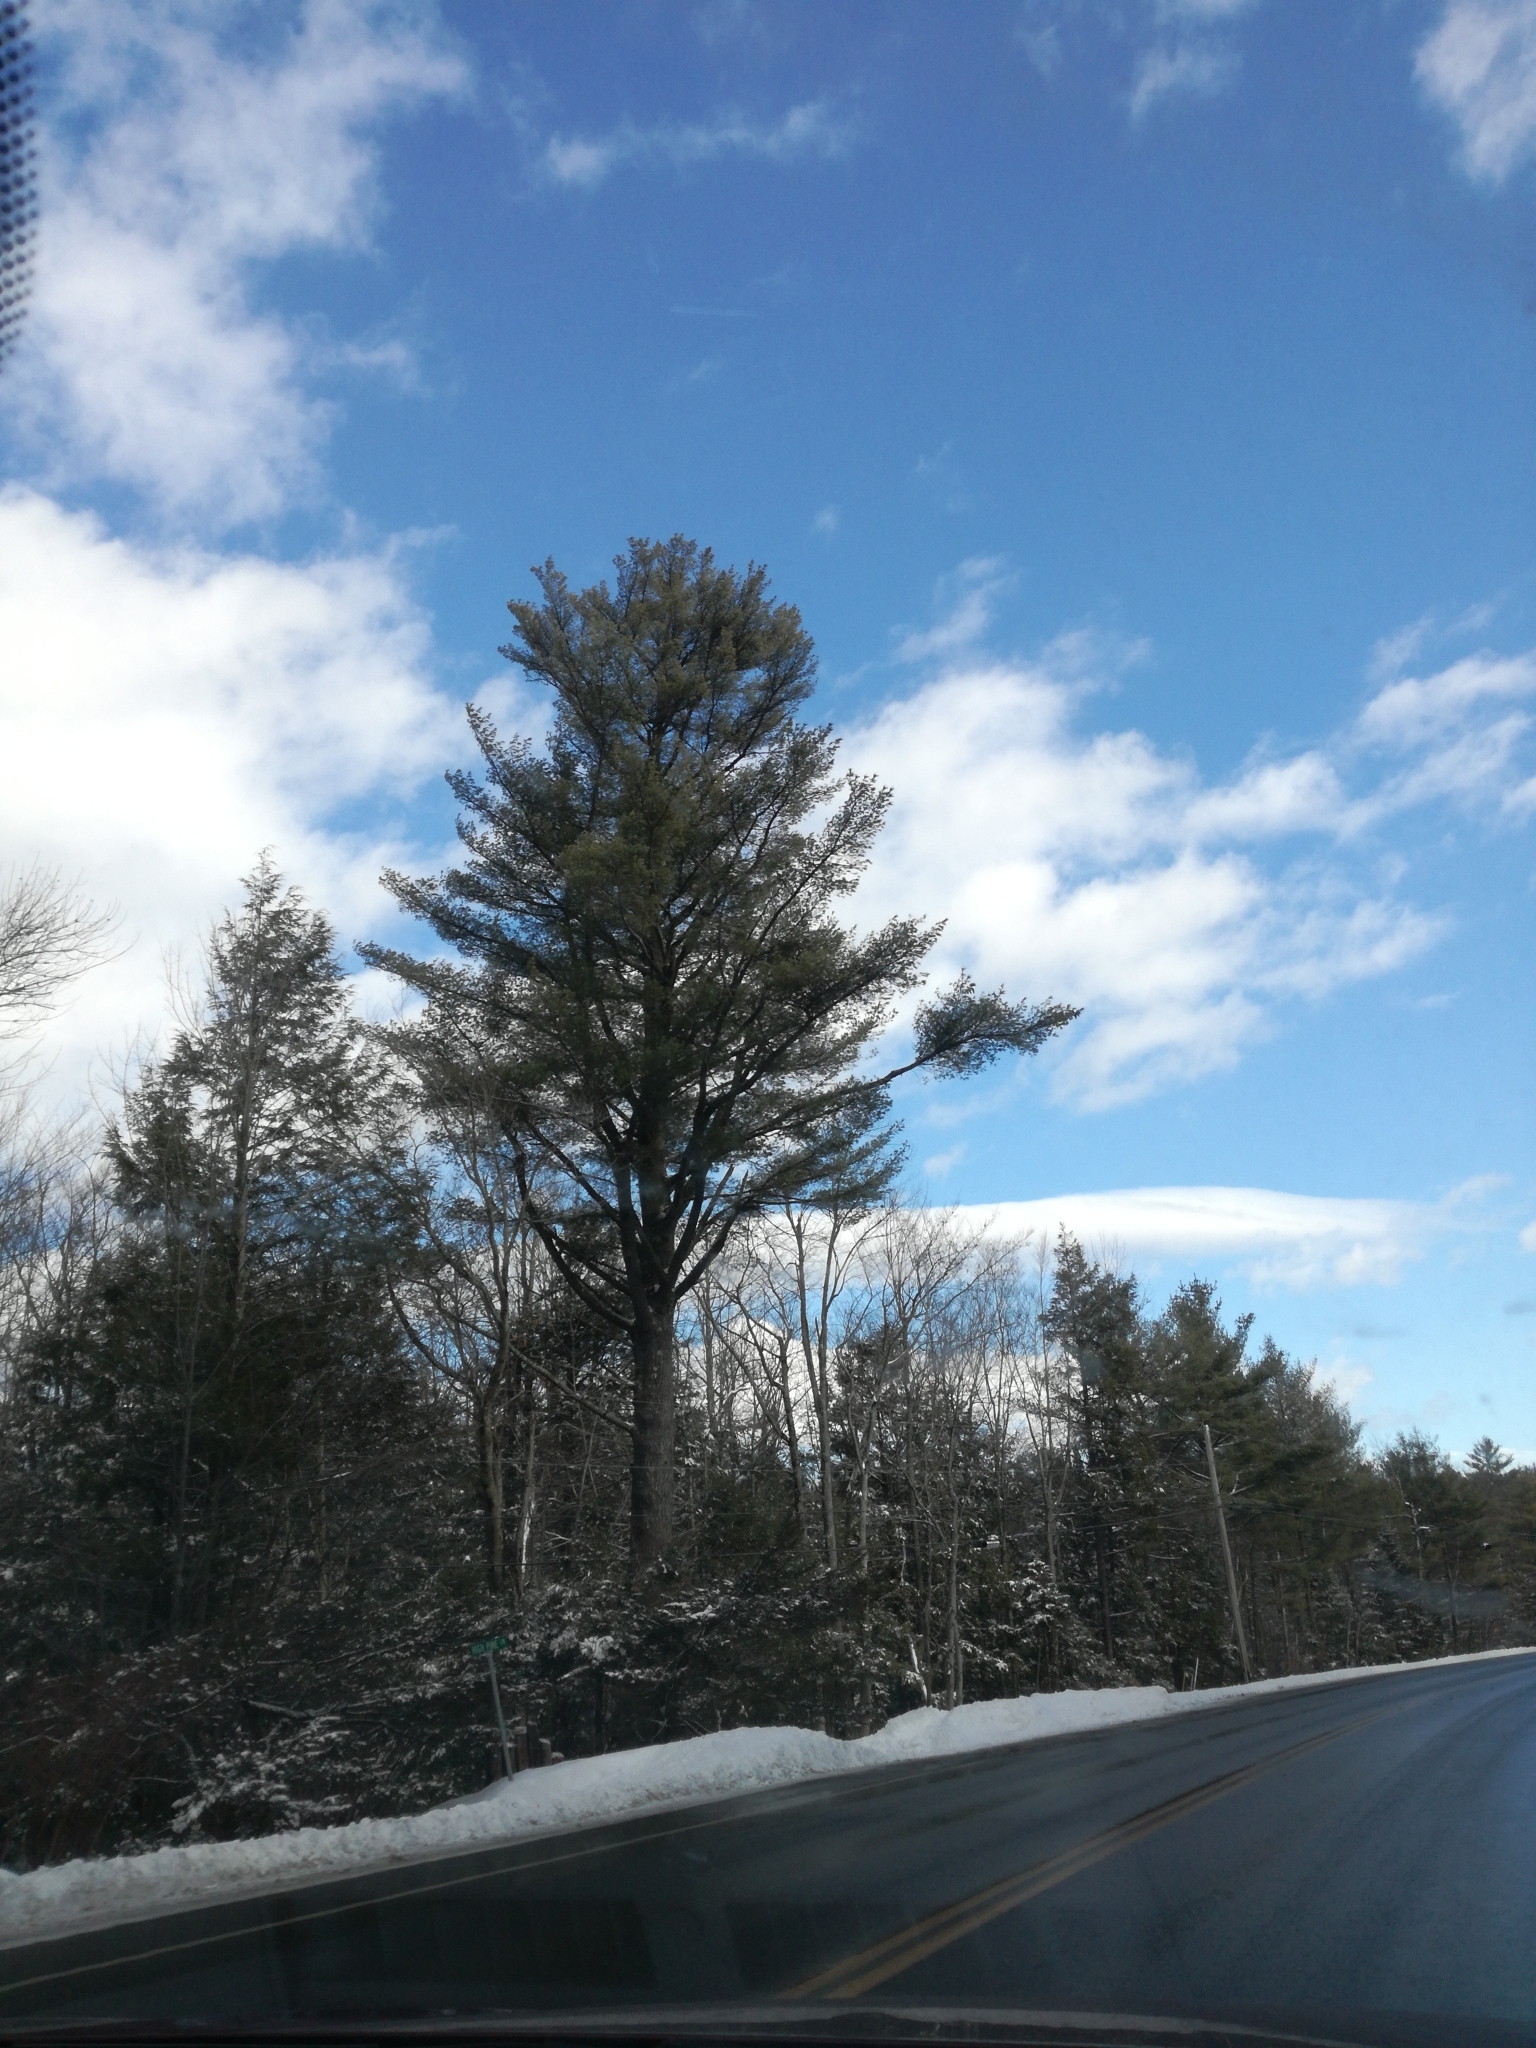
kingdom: Plantae
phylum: Tracheophyta
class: Pinopsida
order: Pinales
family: Pinaceae
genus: Pinus
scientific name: Pinus strobus
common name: Weymouth pine
